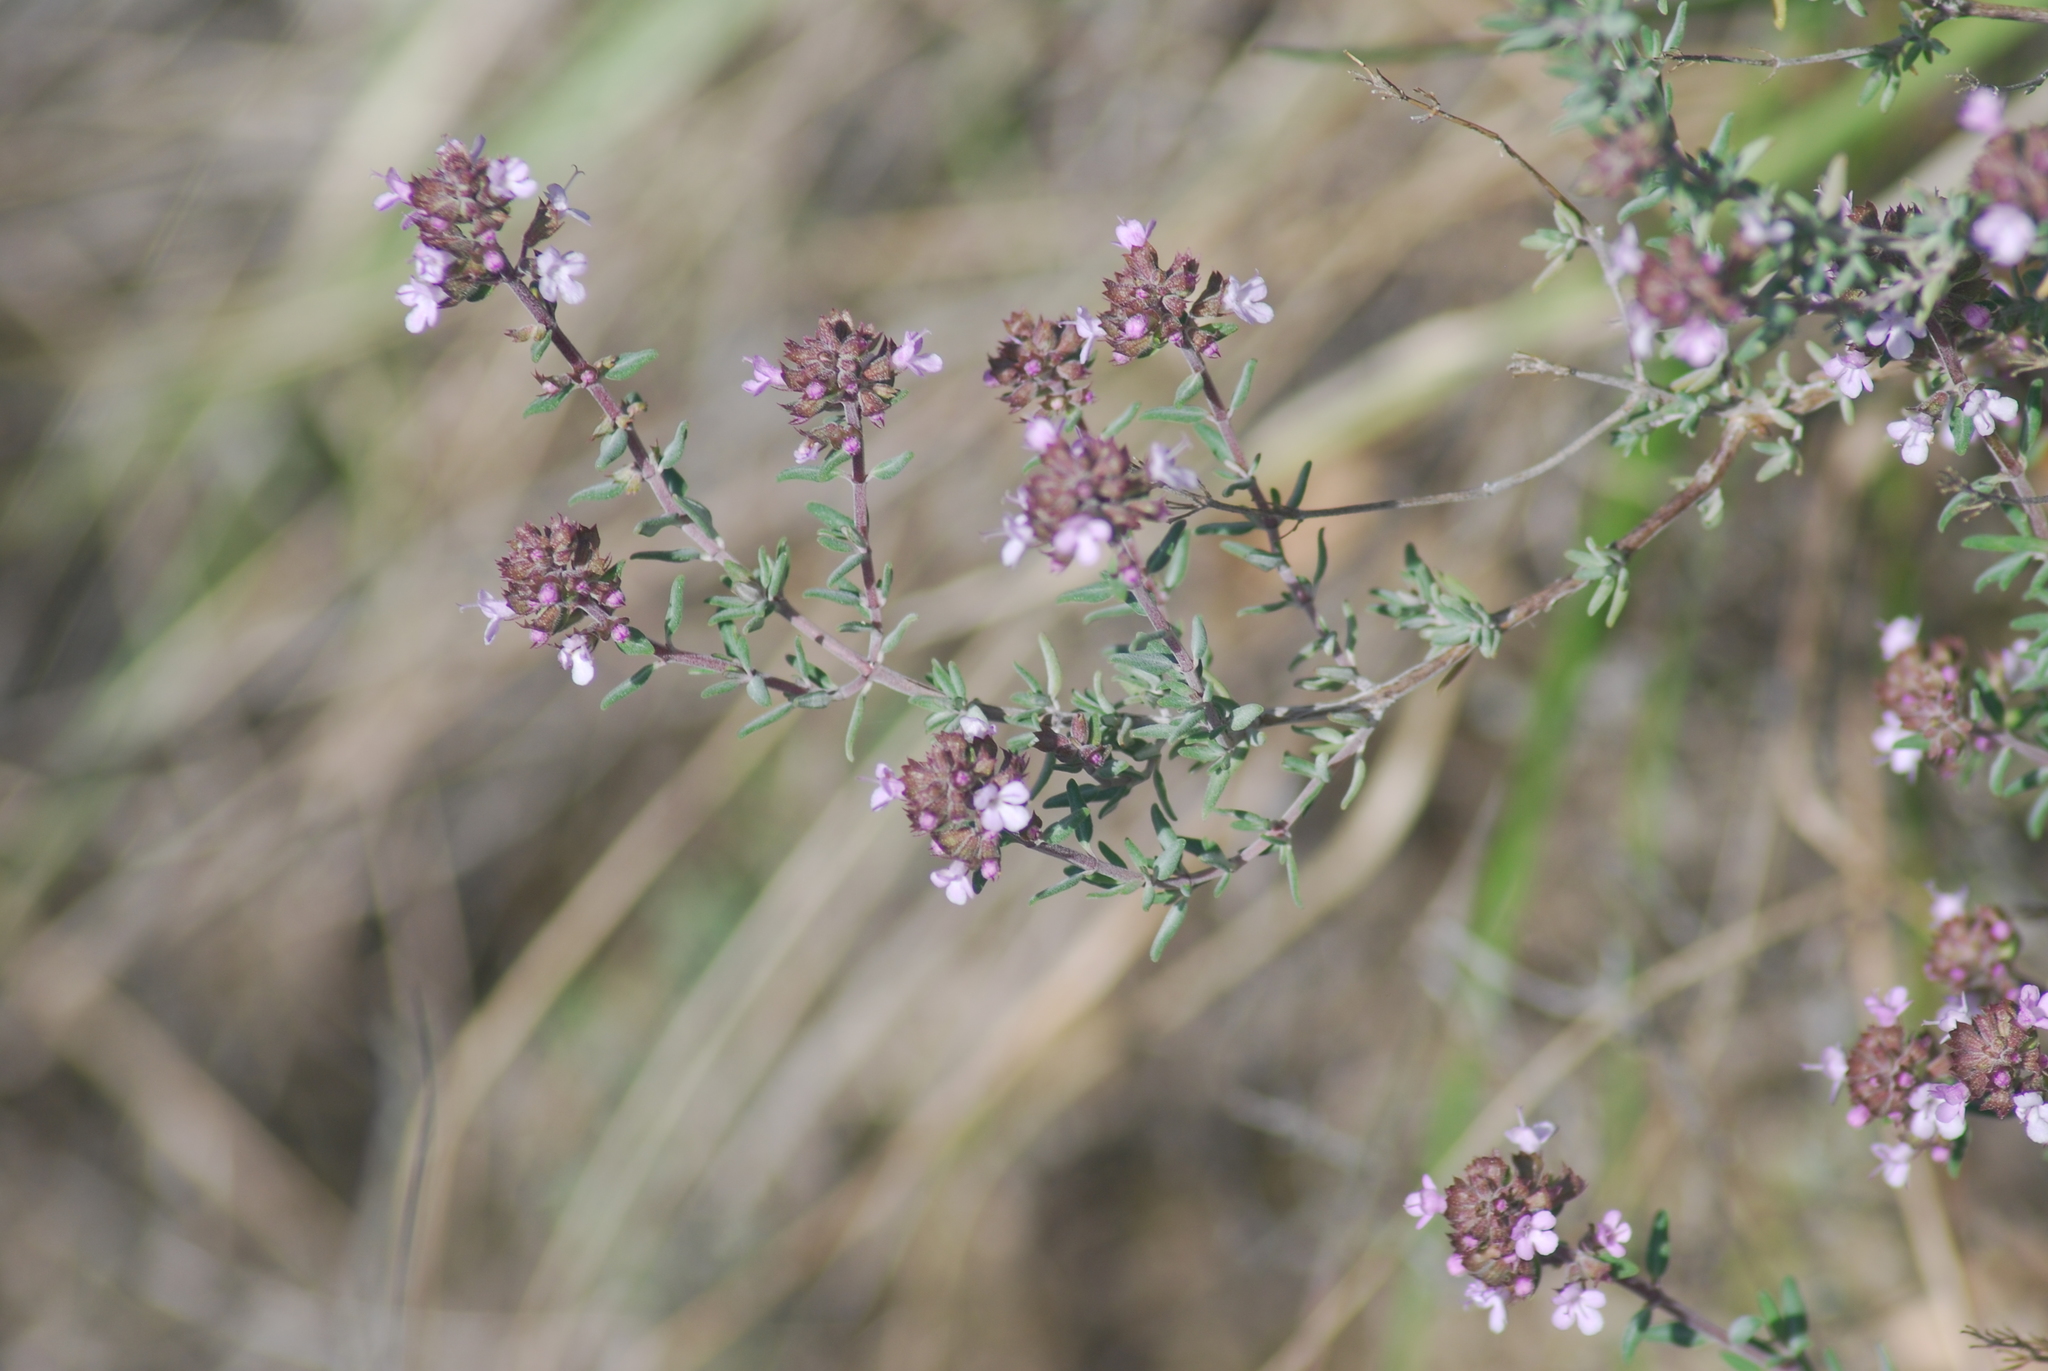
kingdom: Plantae
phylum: Tracheophyta
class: Magnoliopsida
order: Lamiales
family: Lamiaceae
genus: Thymus
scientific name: Thymus vulgaris
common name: Garden thyme
